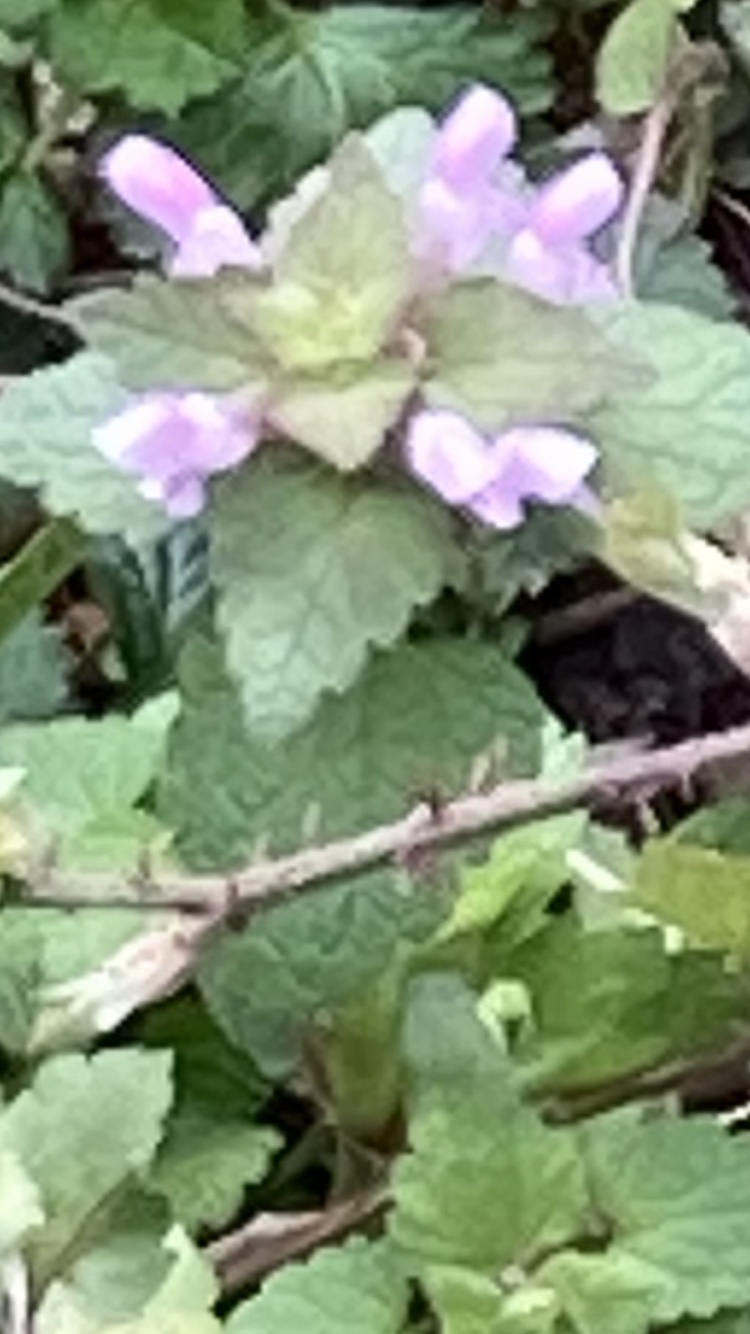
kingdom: Plantae
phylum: Tracheophyta
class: Magnoliopsida
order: Lamiales
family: Lamiaceae
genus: Lamium
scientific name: Lamium purpureum
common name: Red dead-nettle
